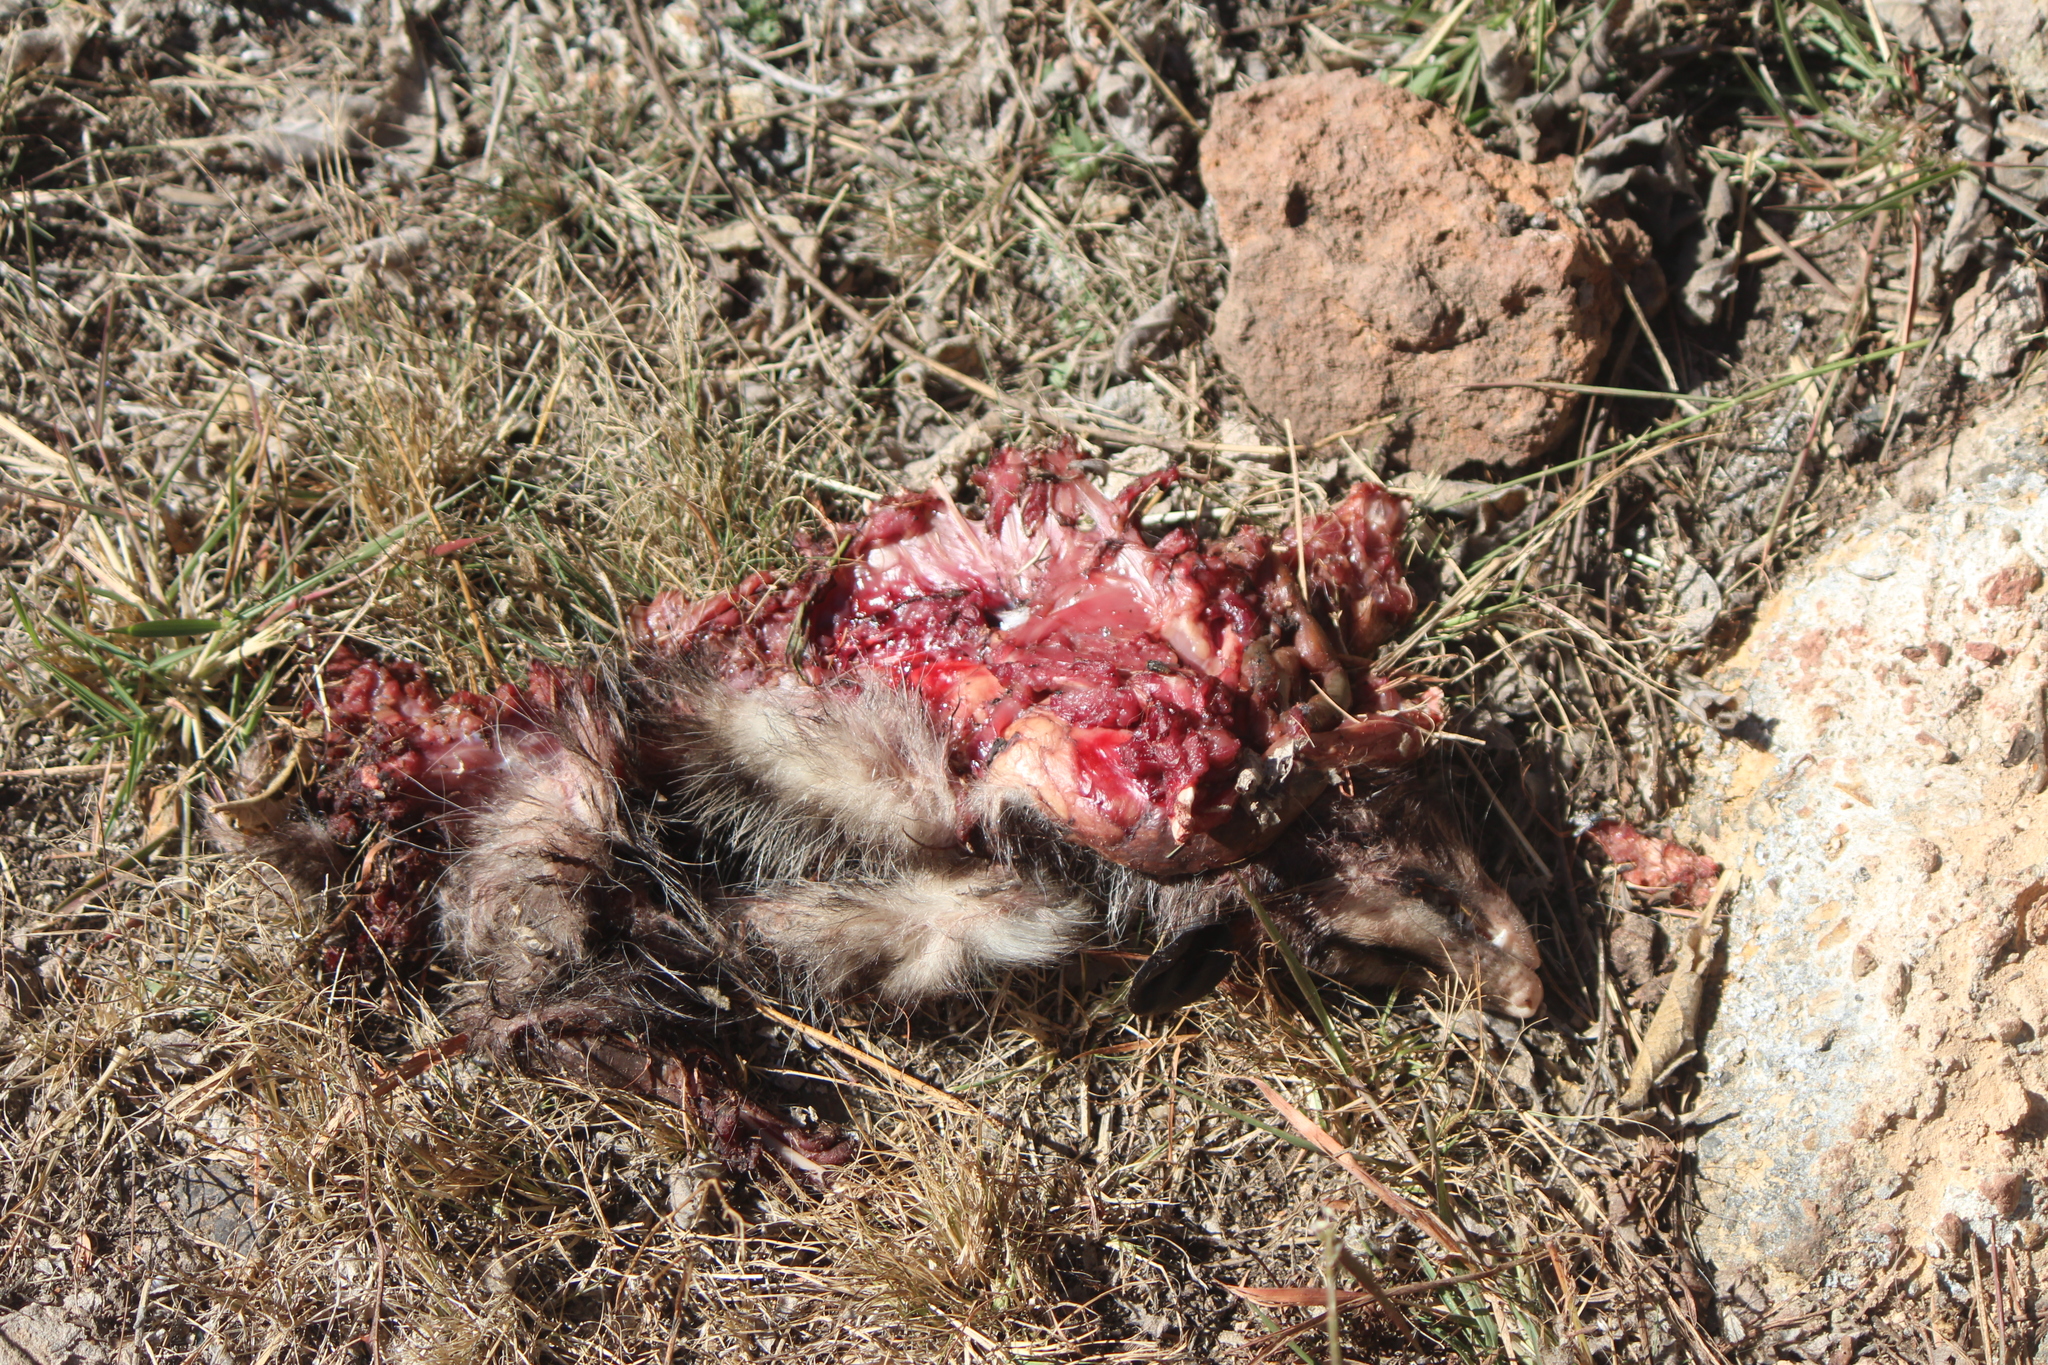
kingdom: Animalia
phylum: Chordata
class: Mammalia
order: Didelphimorphia
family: Didelphidae
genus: Didelphis
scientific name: Didelphis virginiana
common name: Virginia opossum
